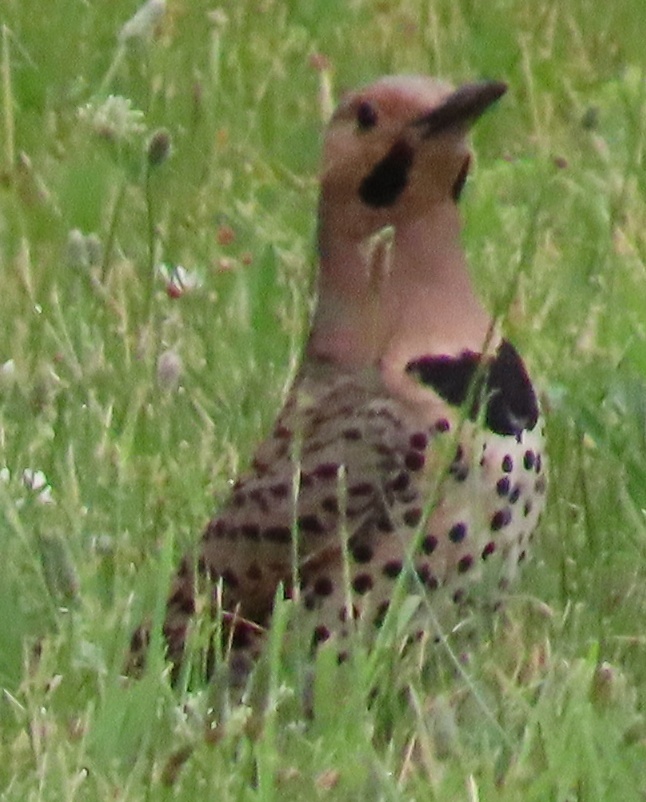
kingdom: Animalia
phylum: Chordata
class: Aves
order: Piciformes
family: Picidae
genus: Colaptes
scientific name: Colaptes auratus
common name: Northern flicker
